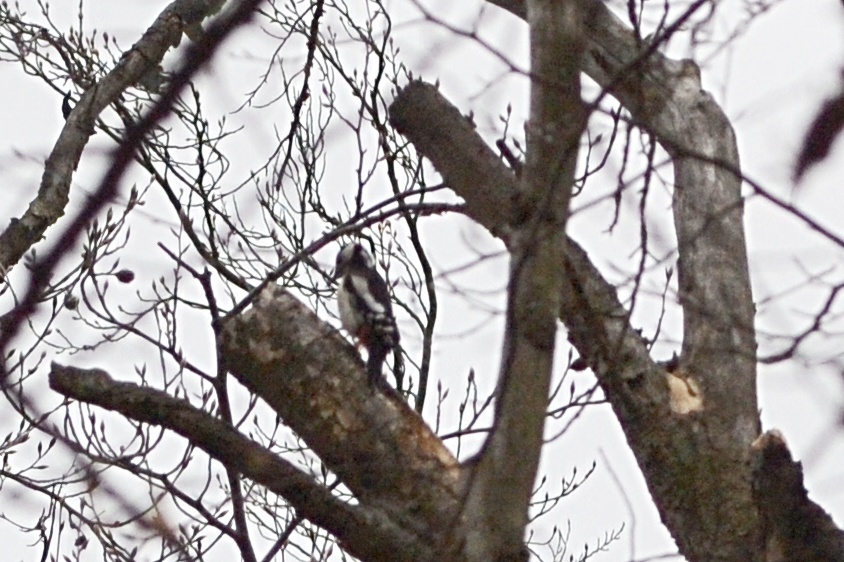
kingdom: Animalia
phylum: Chordata
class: Aves
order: Piciformes
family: Picidae
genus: Dendrocopos
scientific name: Dendrocopos major
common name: Great spotted woodpecker
